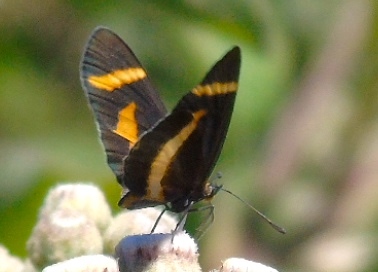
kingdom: Animalia
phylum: Arthropoda
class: Insecta
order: Lepidoptera
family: Nymphalidae
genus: Microtia
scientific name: Microtia elva
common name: Elf
